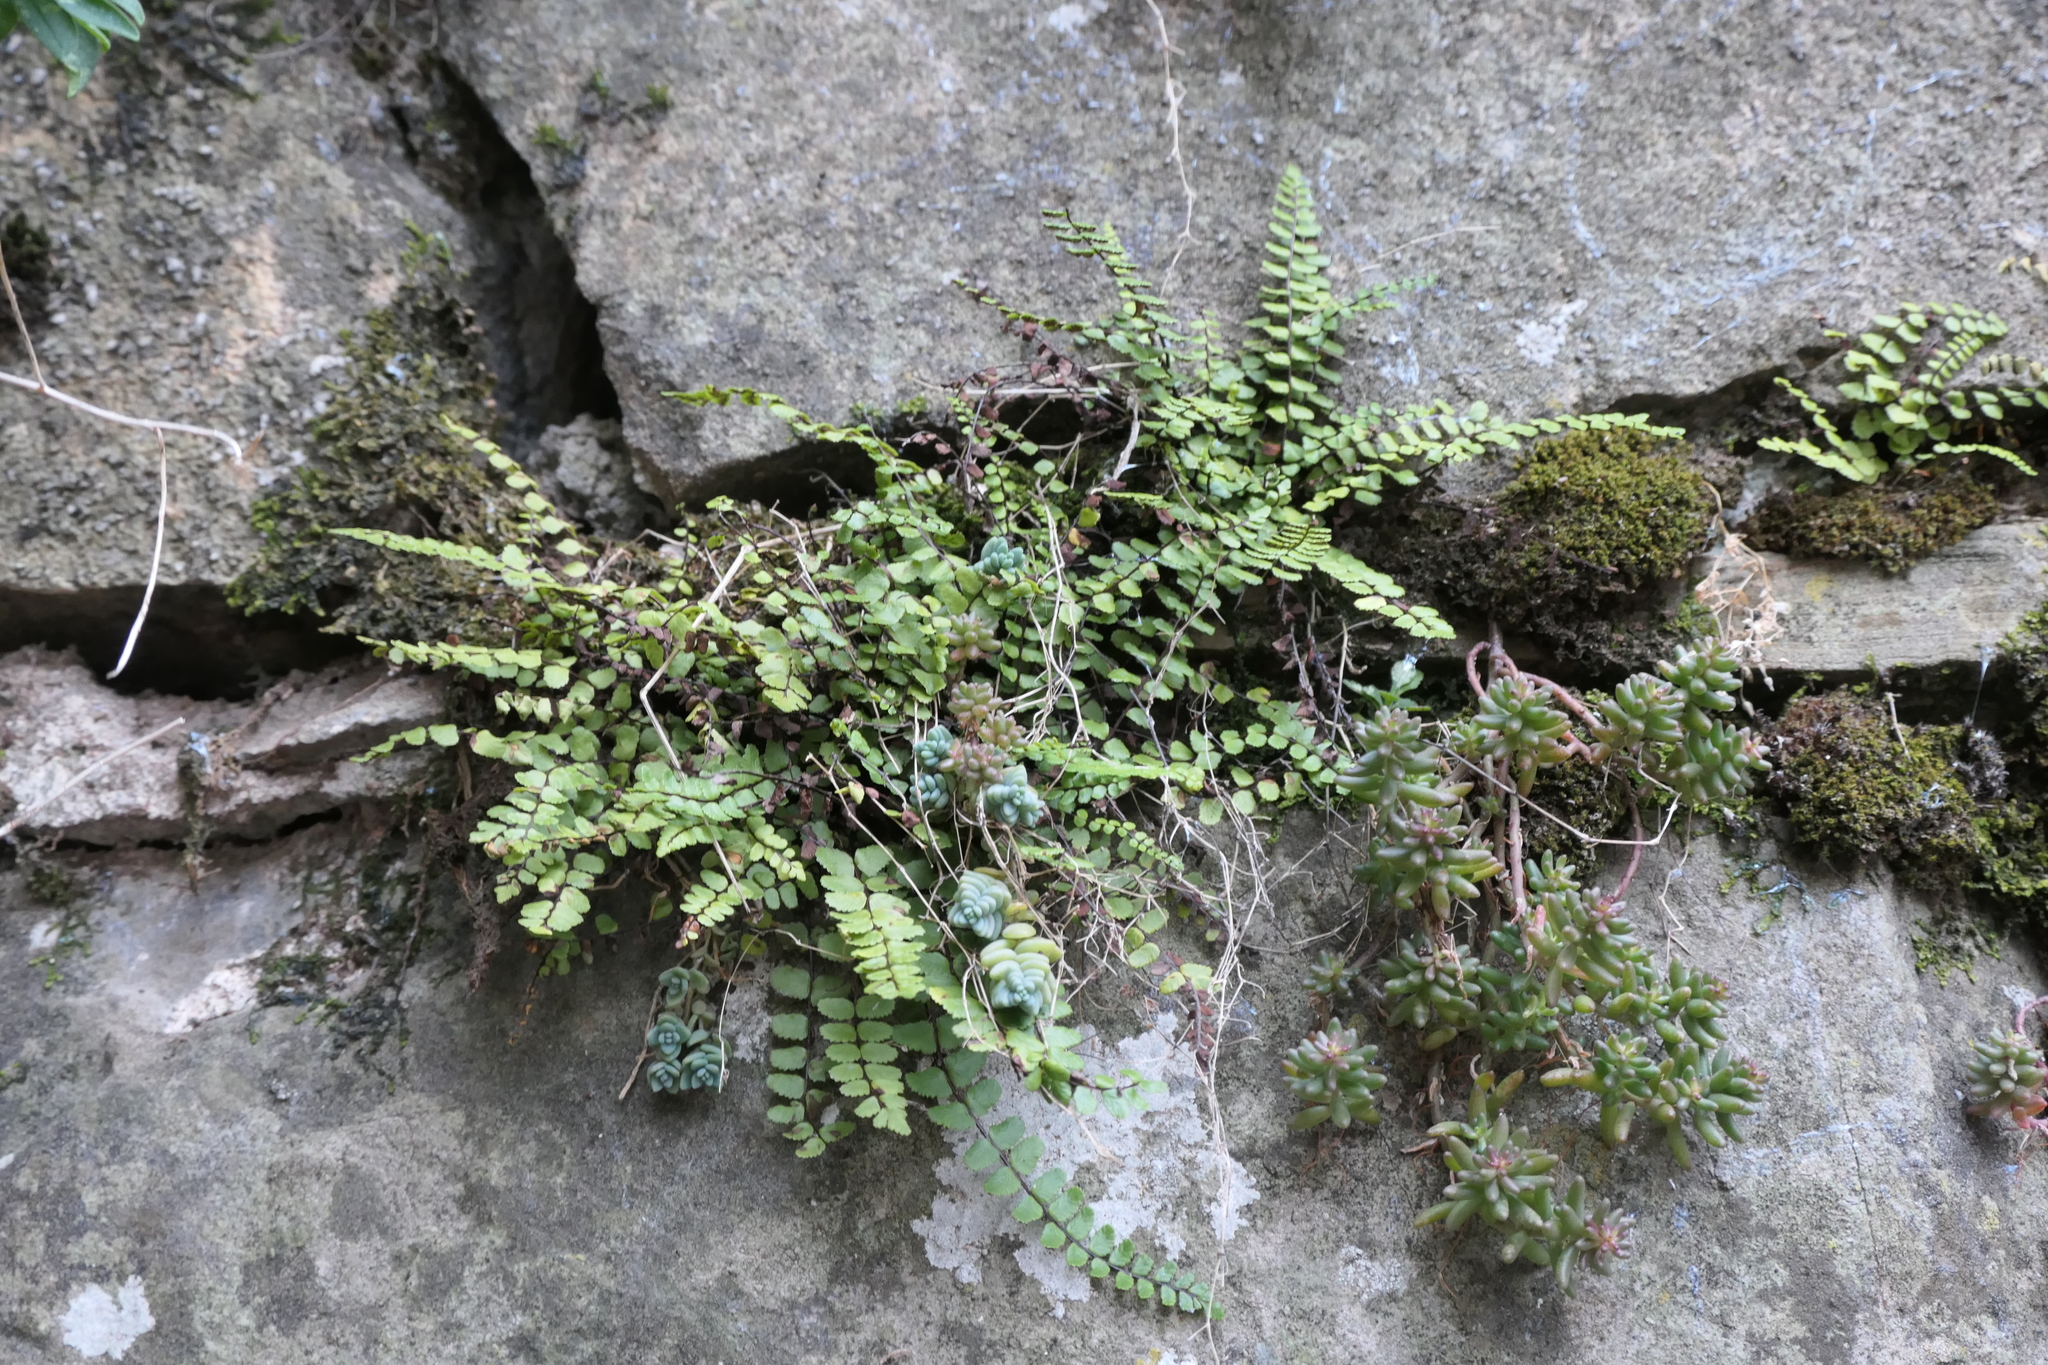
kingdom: Plantae
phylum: Tracheophyta
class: Polypodiopsida
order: Polypodiales
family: Aspleniaceae
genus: Asplenium
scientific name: Asplenium trichomanes
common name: Maidenhair spleenwort
